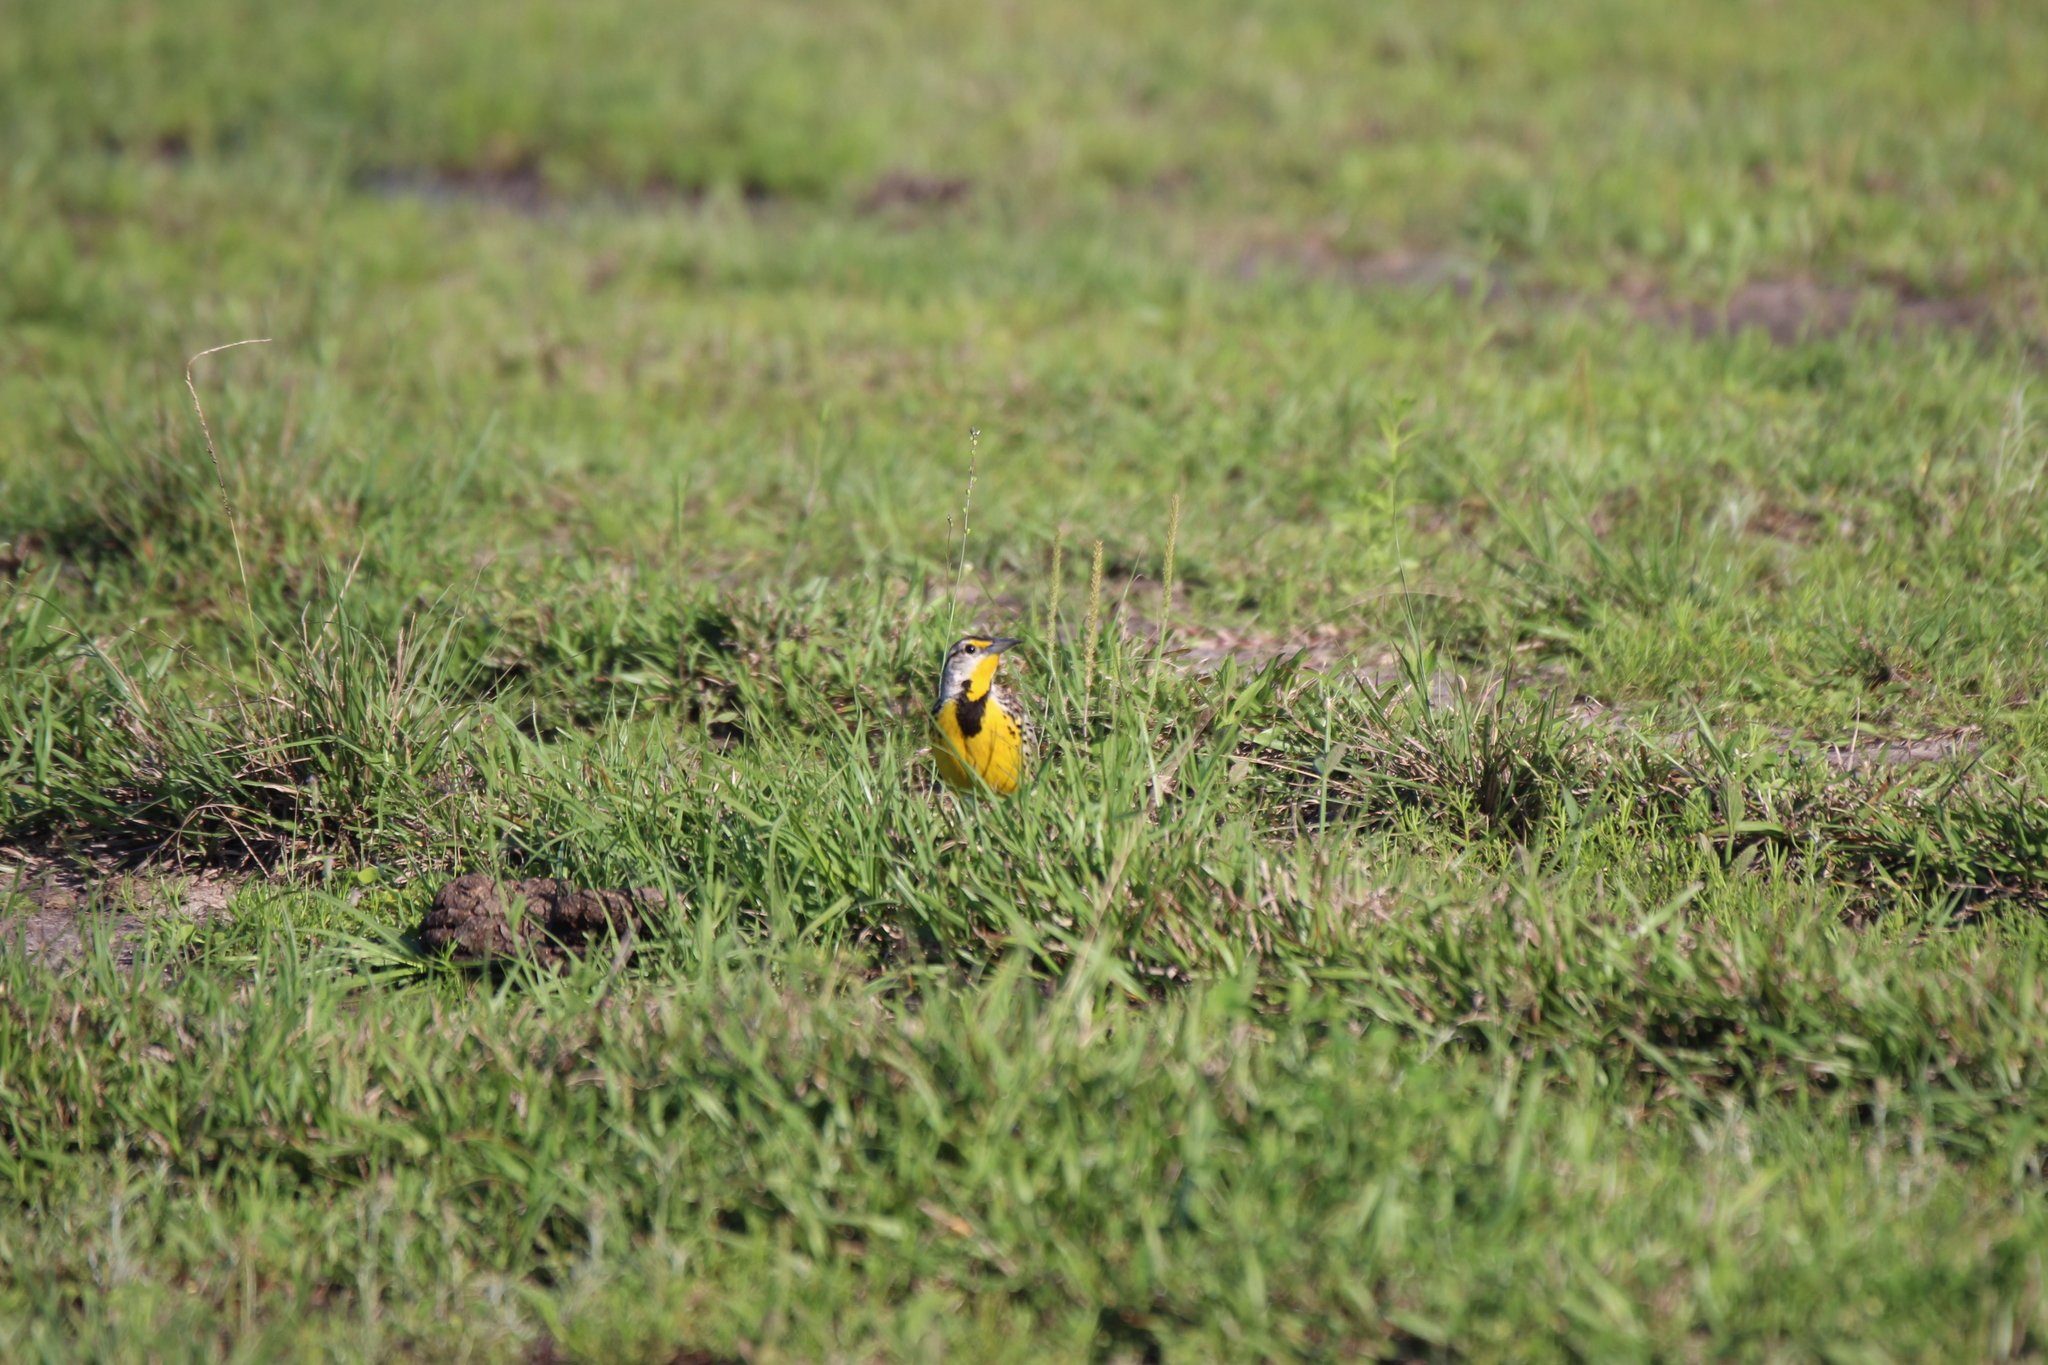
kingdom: Animalia
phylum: Chordata
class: Aves
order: Passeriformes
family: Icteridae
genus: Sturnella
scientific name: Sturnella magna
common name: Eastern meadowlark
